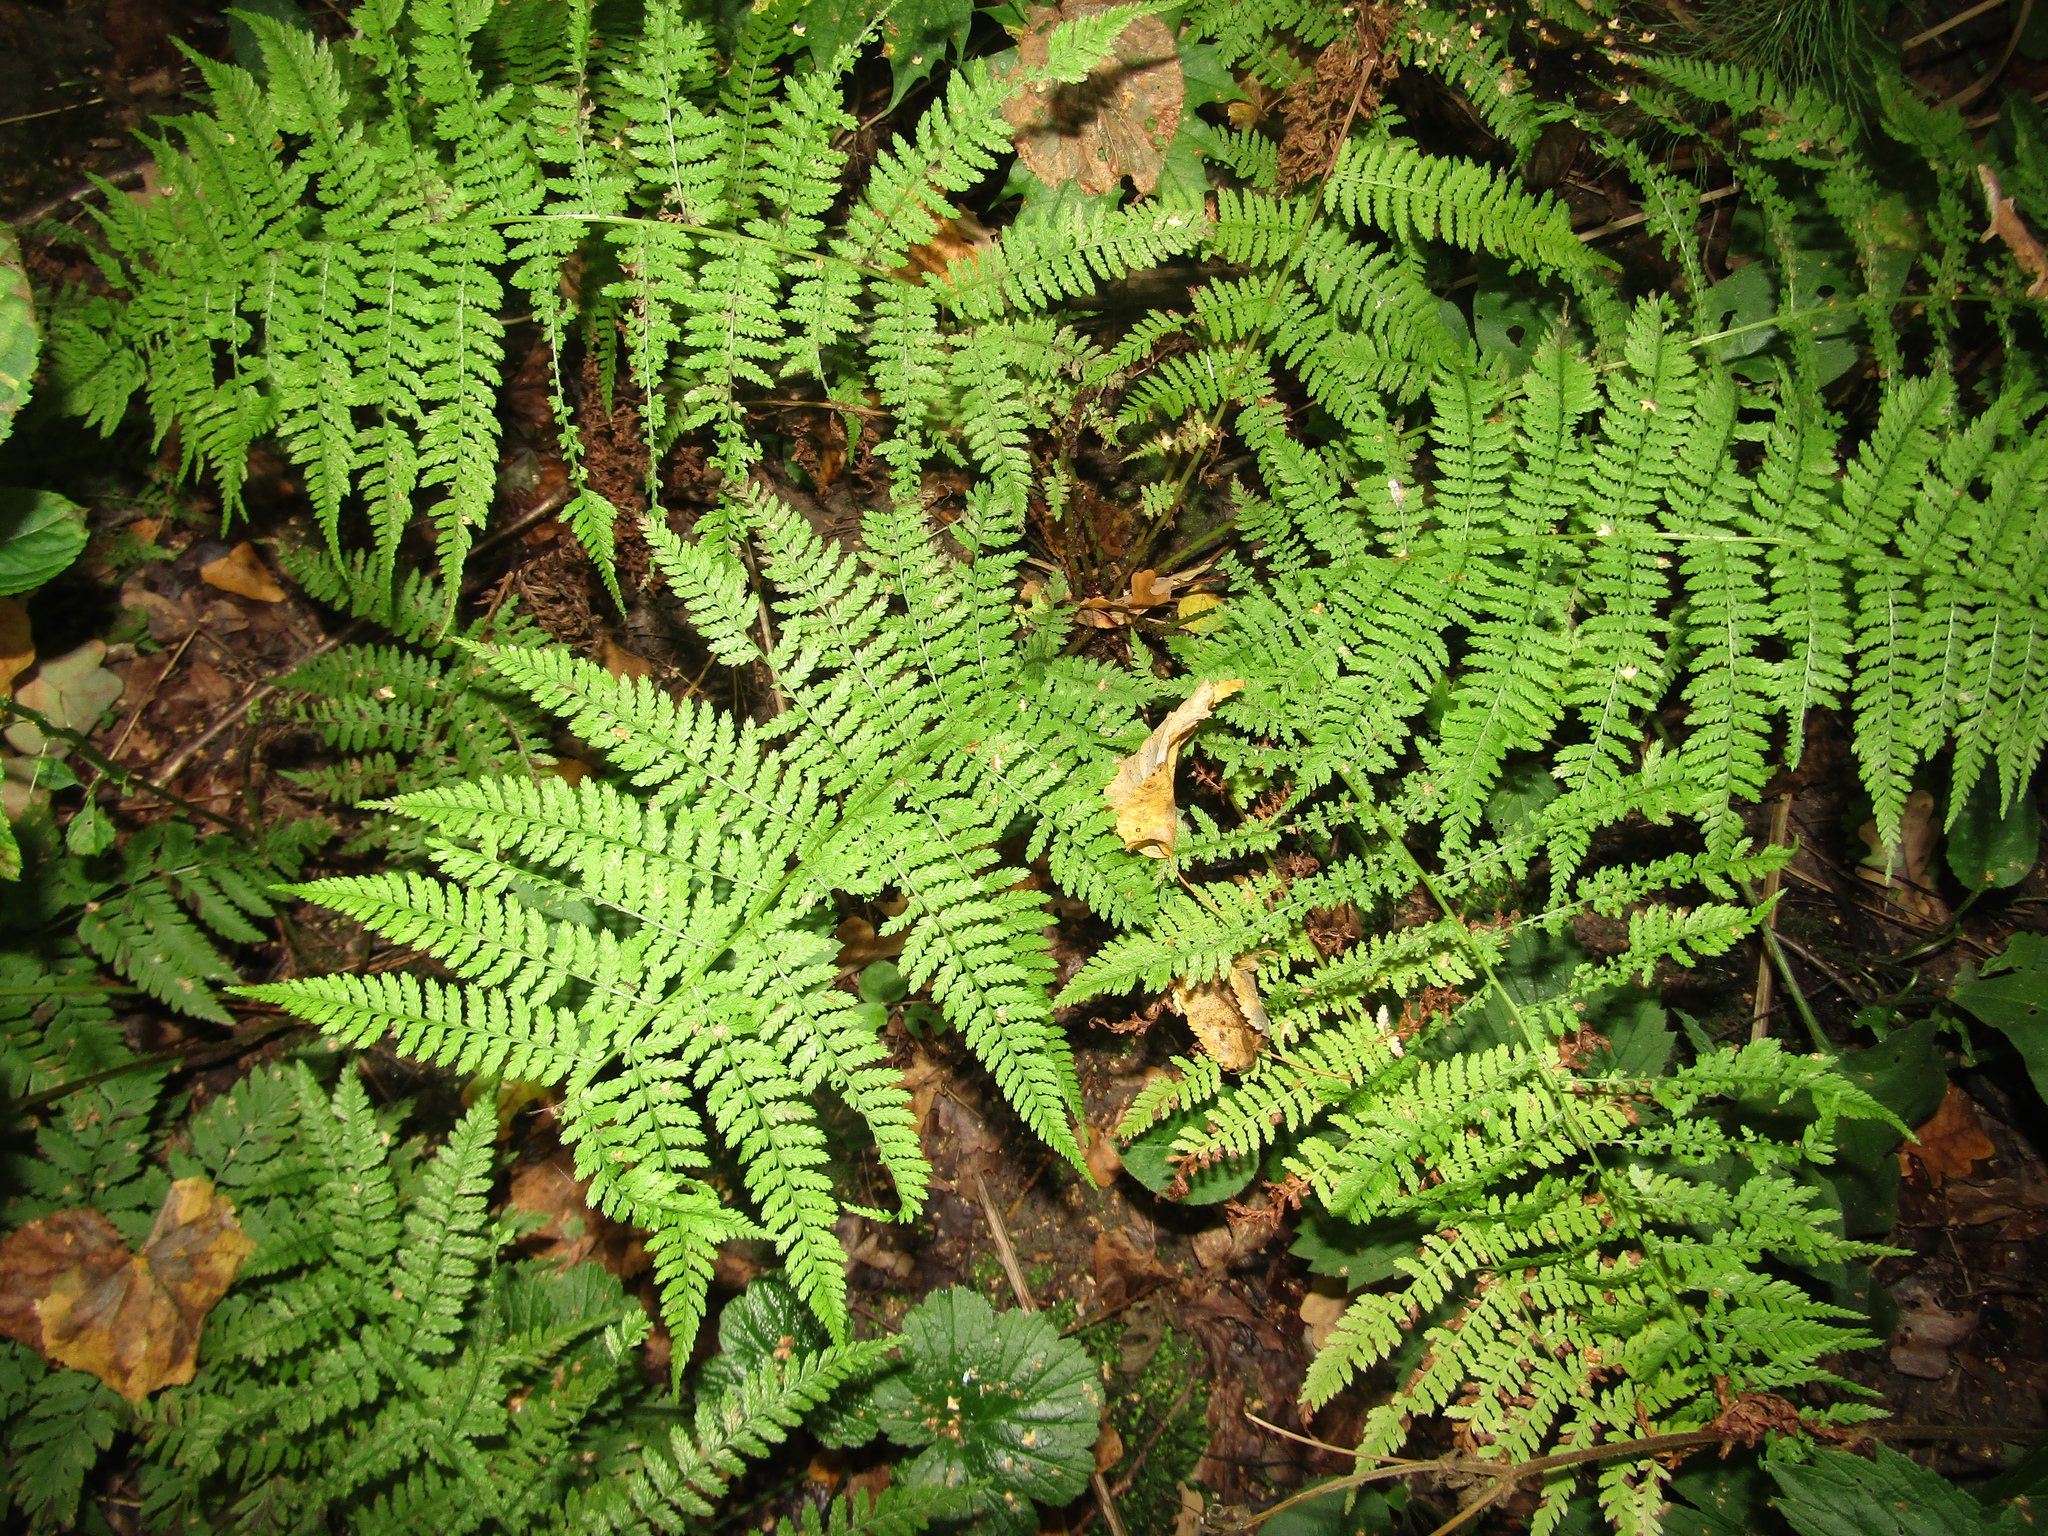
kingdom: Plantae
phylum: Tracheophyta
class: Polypodiopsida
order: Polypodiales
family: Athyriaceae
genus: Athyrium
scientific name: Athyrium filix-femina
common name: Lady fern
